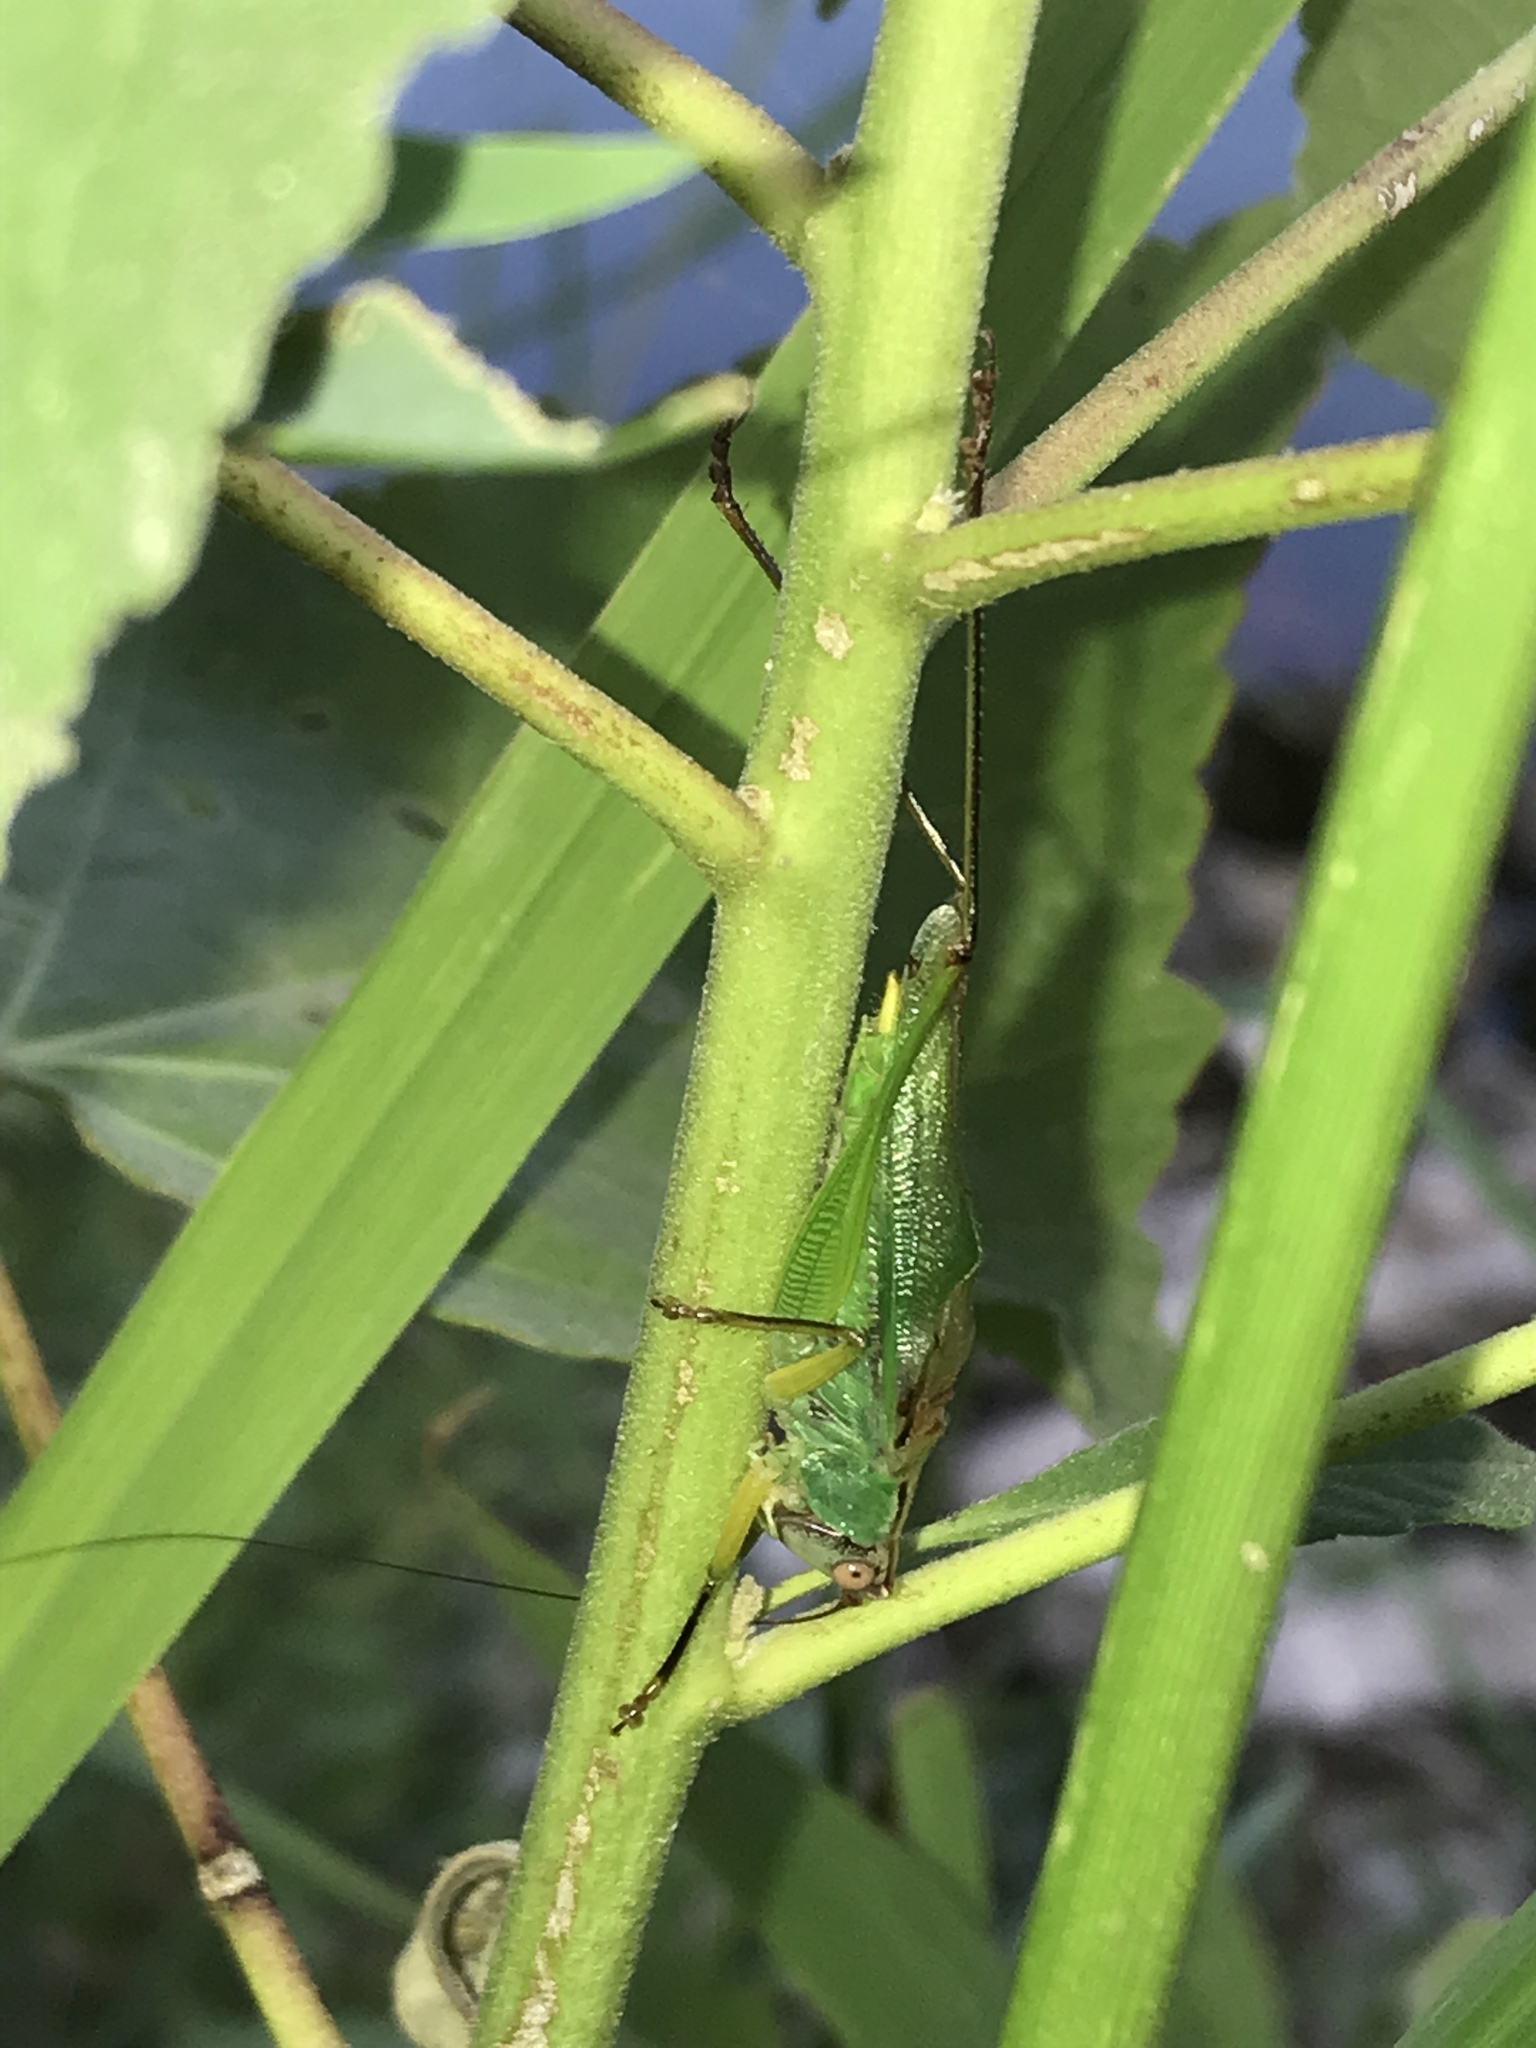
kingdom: Animalia
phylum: Arthropoda
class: Insecta
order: Orthoptera
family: Tettigoniidae
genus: Orchelimum
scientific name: Orchelimum nigripes
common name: Black-legged meadow katydid
